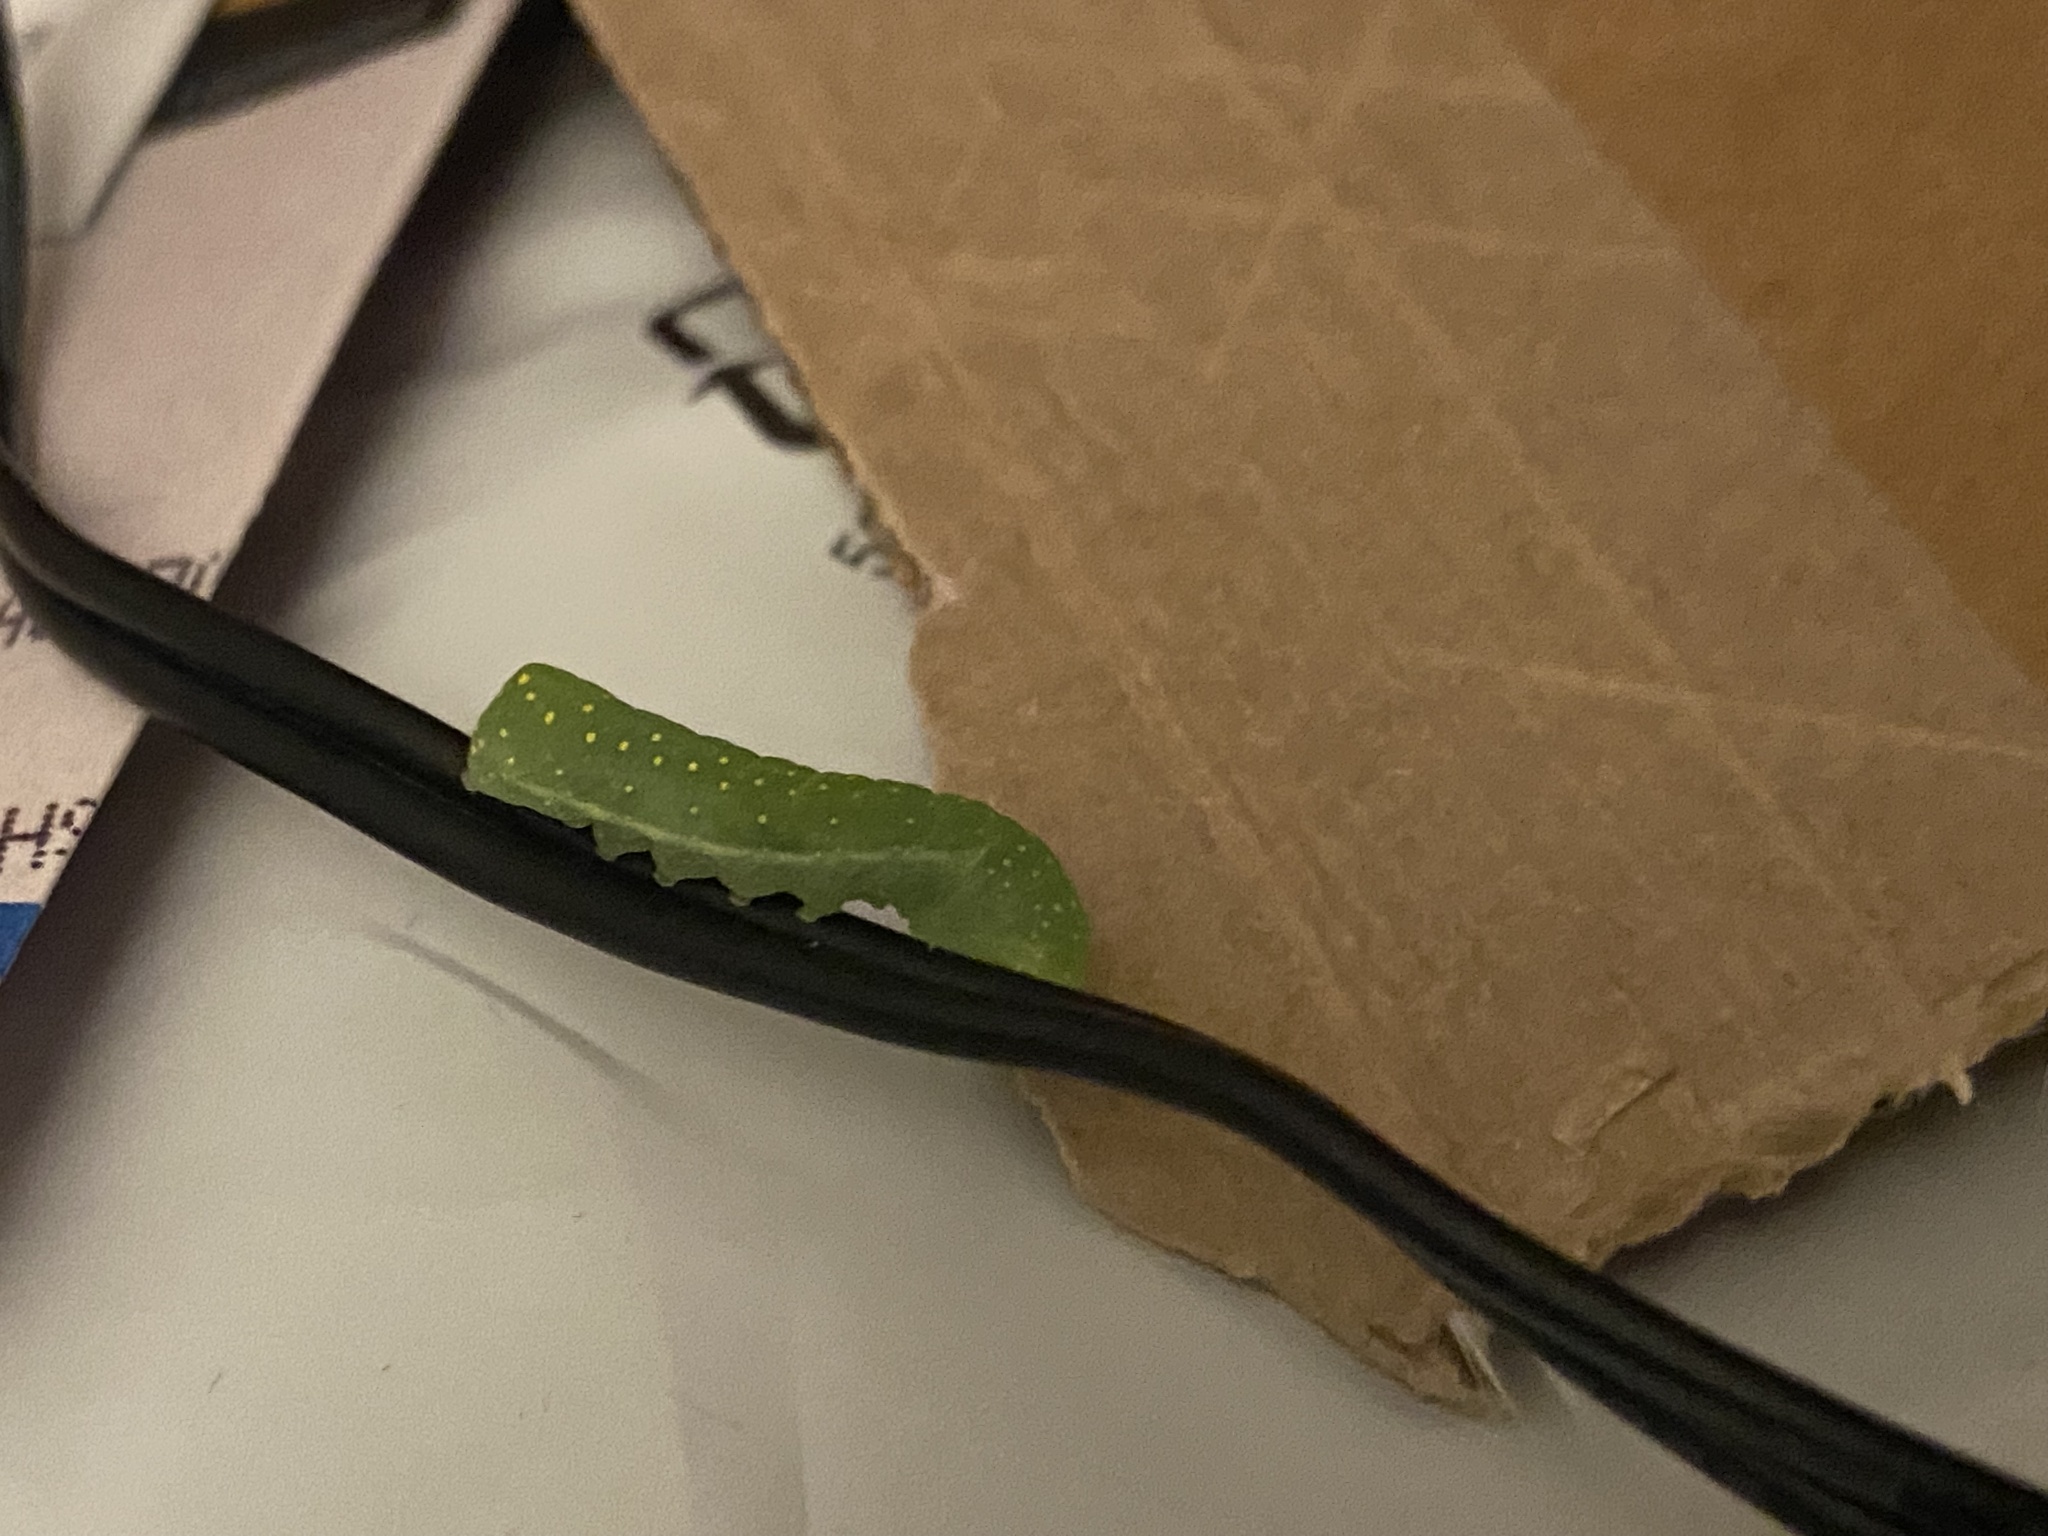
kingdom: Animalia
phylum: Arthropoda
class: Insecta
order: Lepidoptera
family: Noctuidae
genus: Phosphila
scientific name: Phosphila miselioides
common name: Spotted phosphila moth
